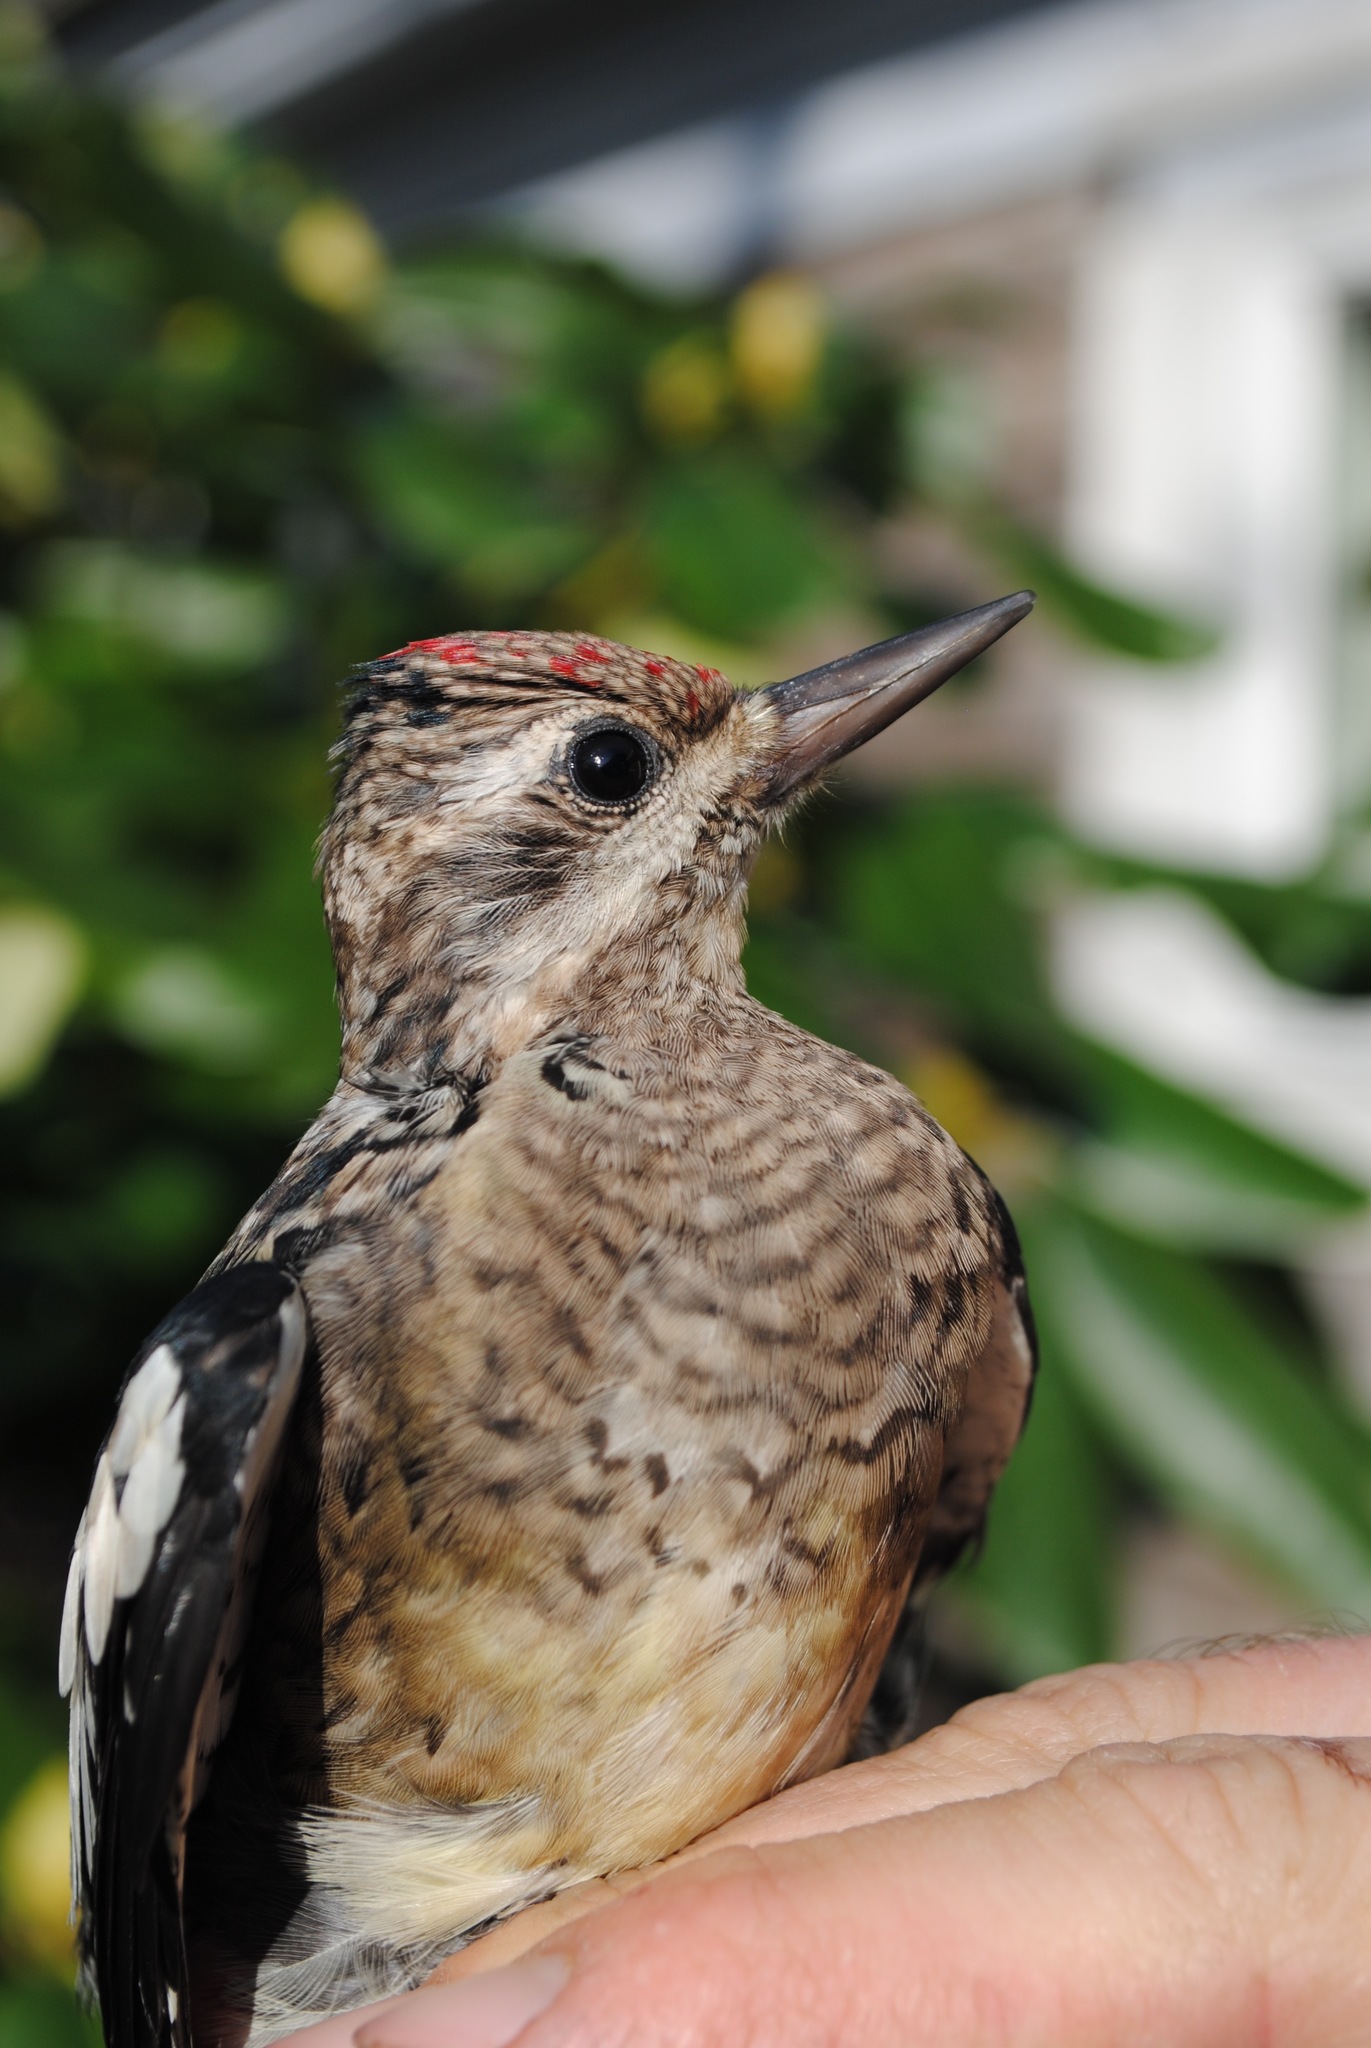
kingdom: Animalia
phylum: Chordata
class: Aves
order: Piciformes
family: Picidae
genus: Sphyrapicus
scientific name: Sphyrapicus varius
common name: Yellow-bellied sapsucker
